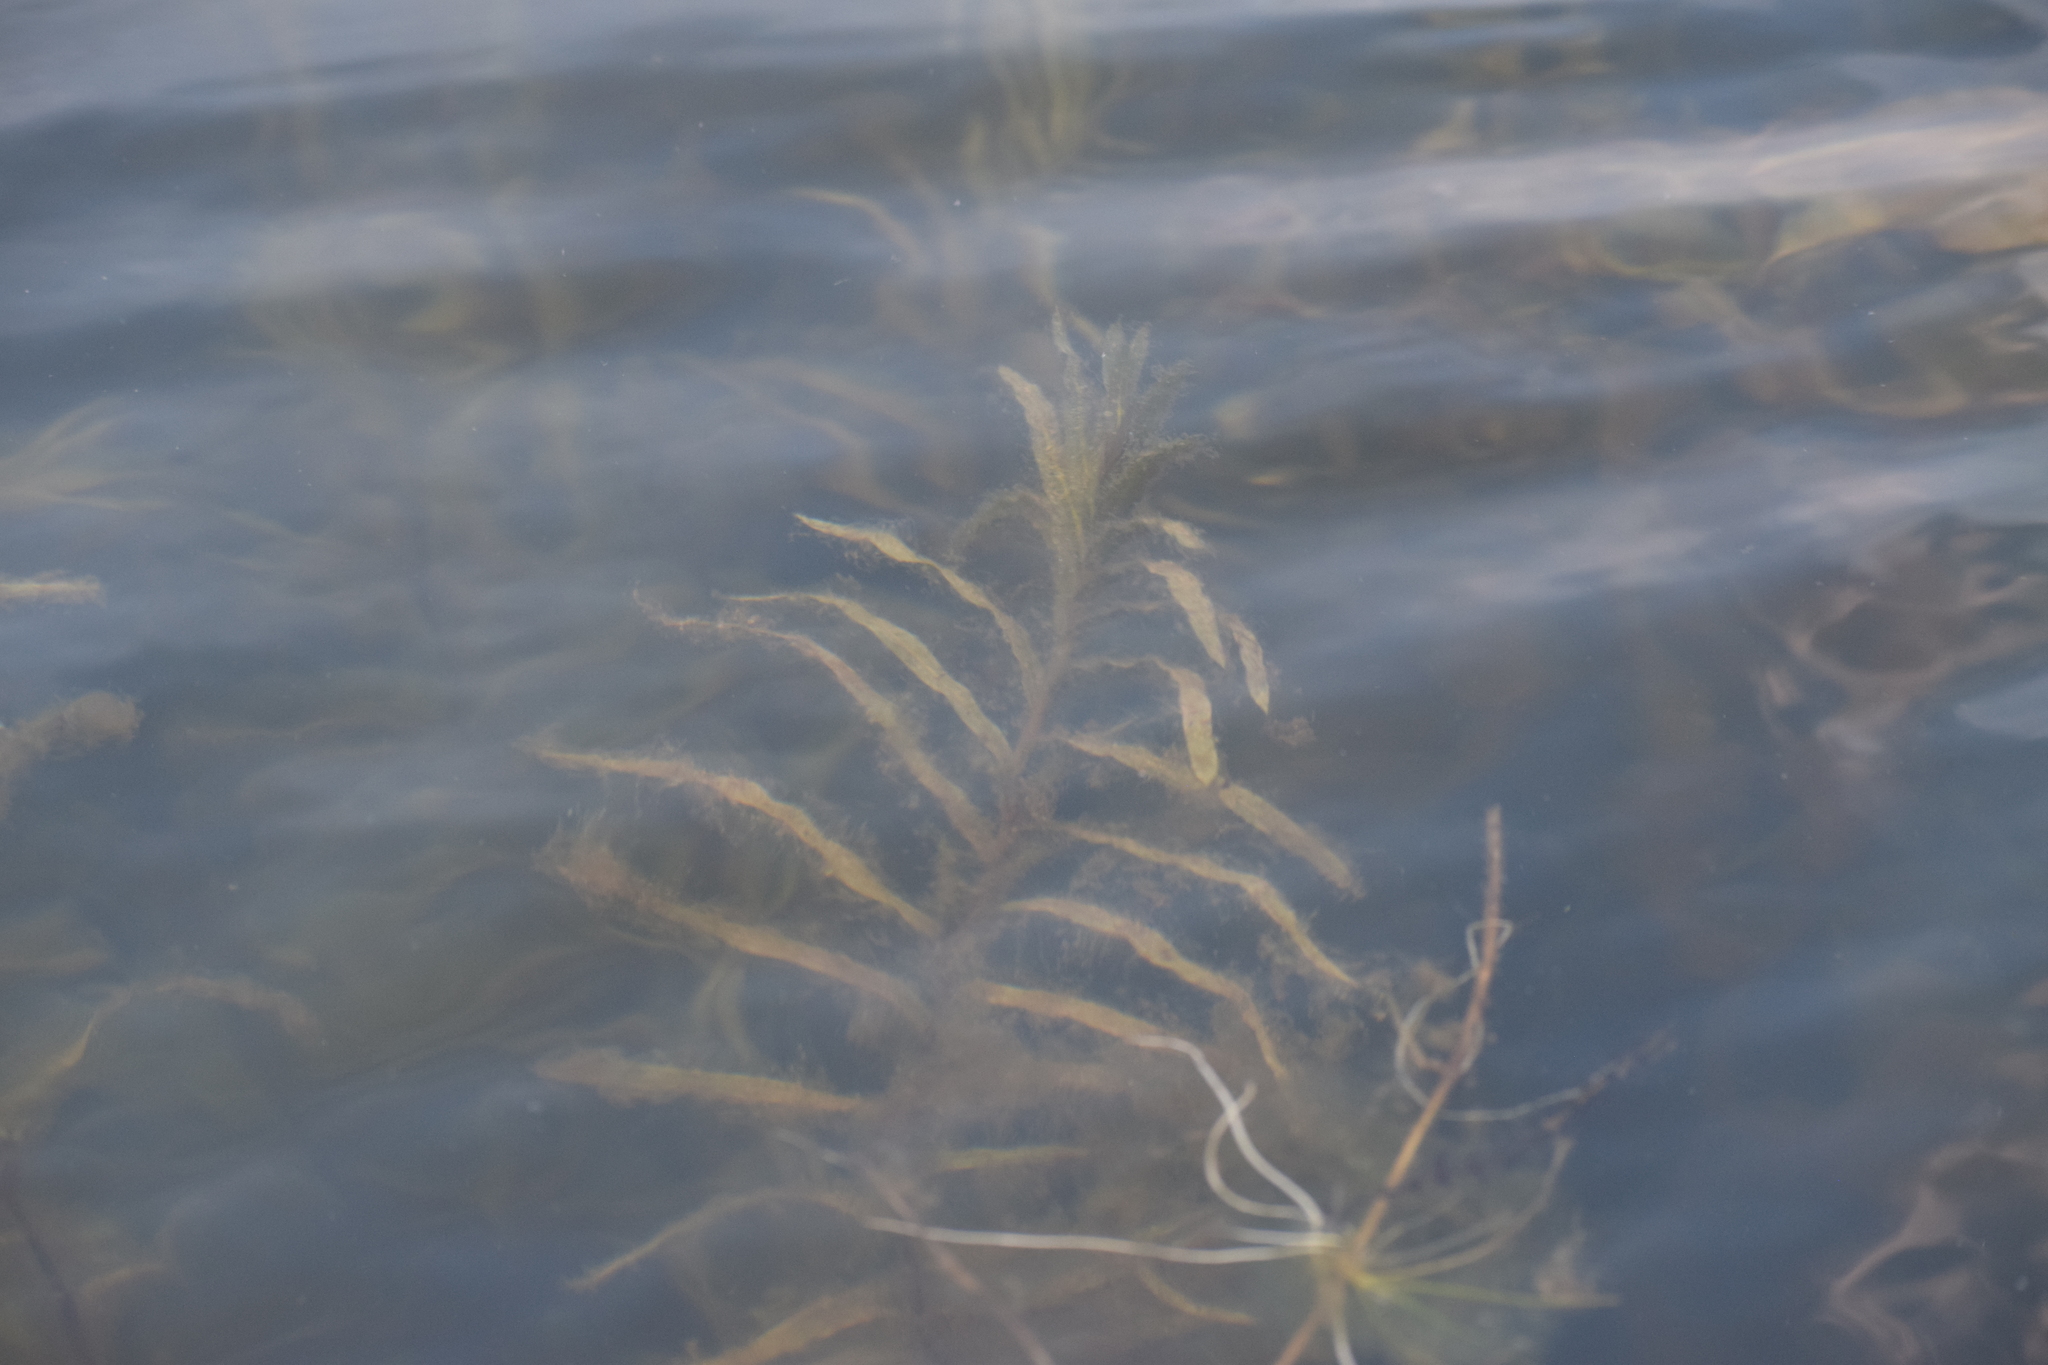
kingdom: Plantae
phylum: Tracheophyta
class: Liliopsida
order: Alismatales
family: Potamogetonaceae
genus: Potamogeton
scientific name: Potamogeton robbinsii
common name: Fern pondweed
